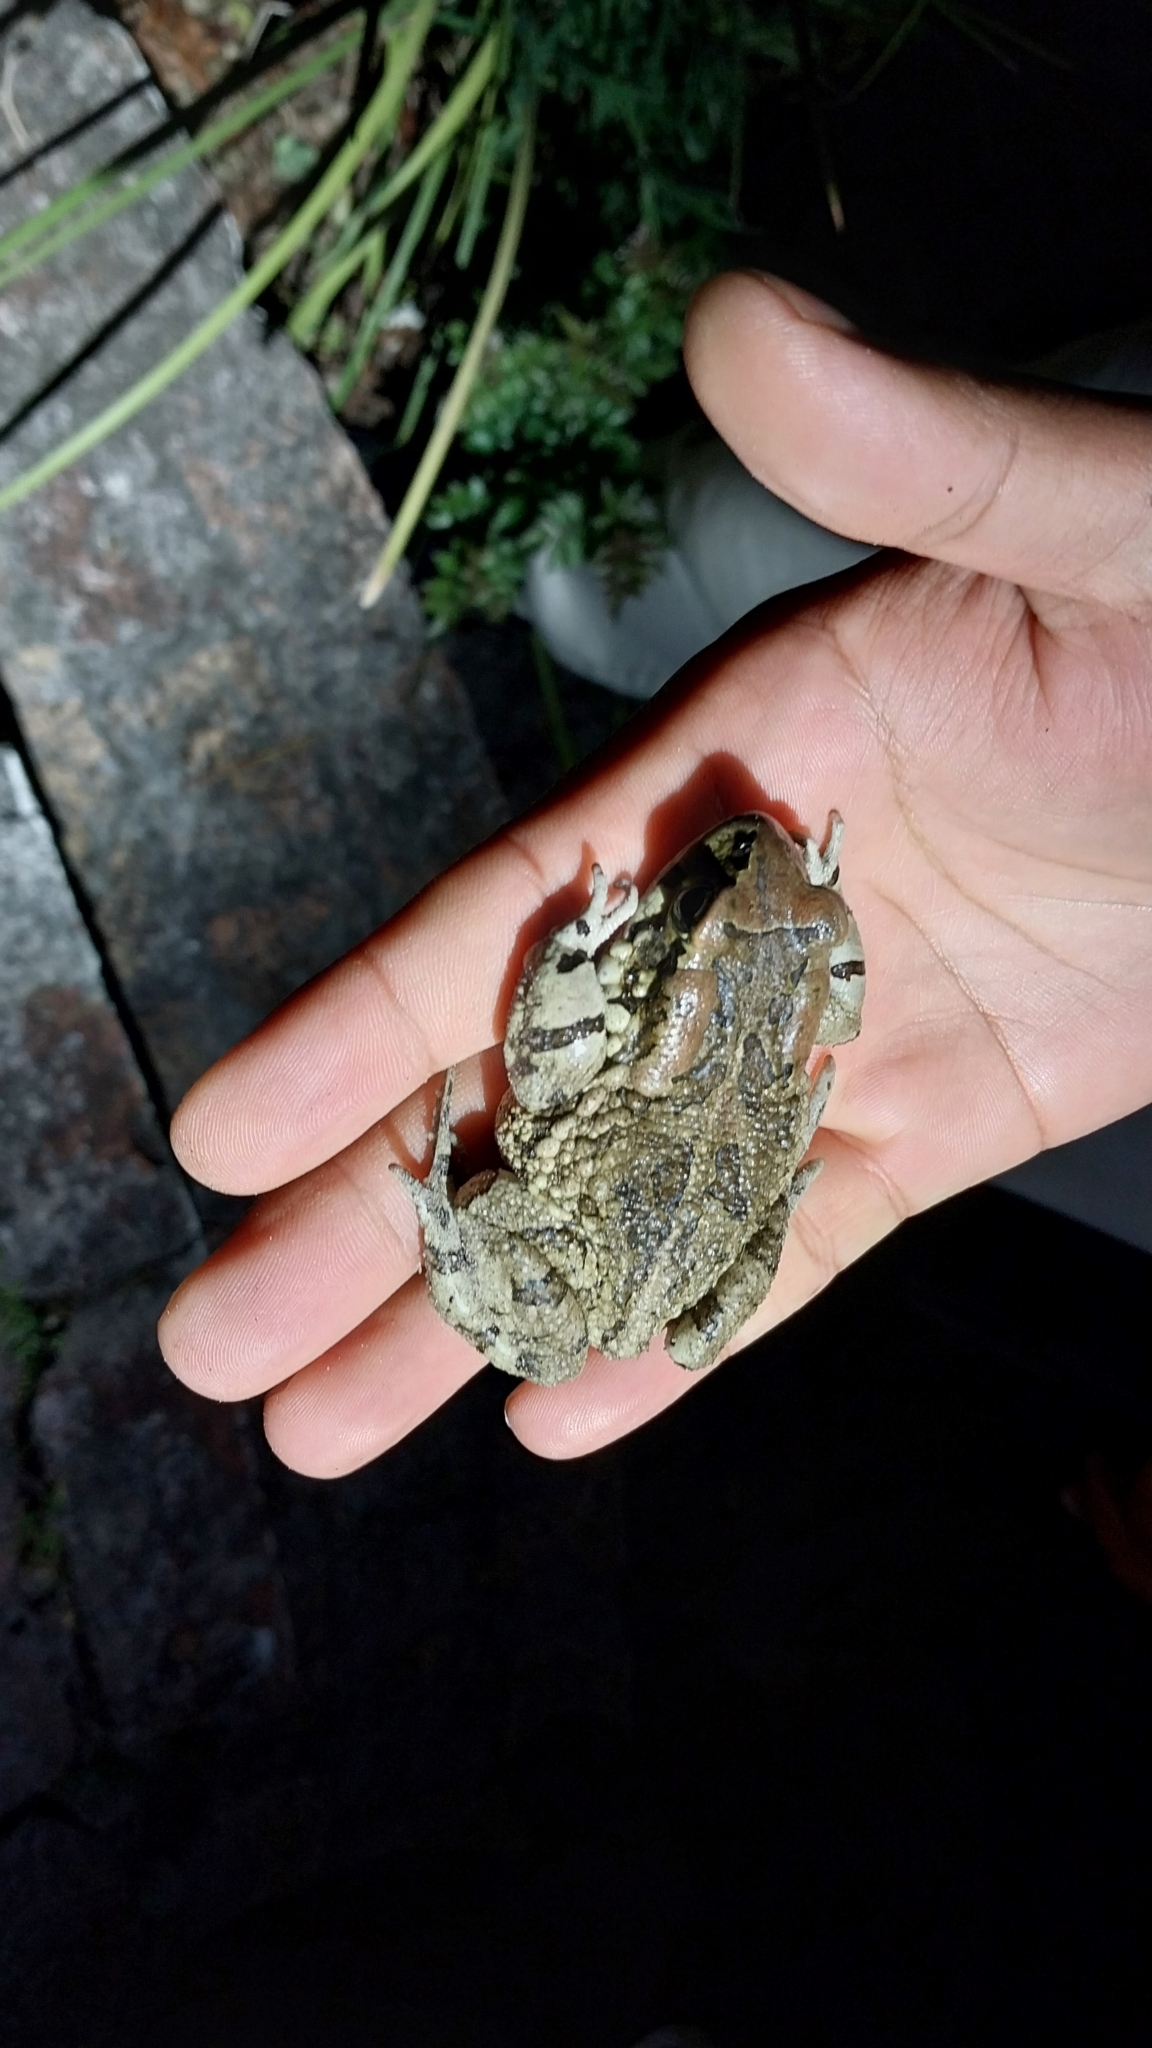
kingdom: Animalia
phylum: Chordata
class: Amphibia
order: Anura
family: Bufonidae
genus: Sclerophrys
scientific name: Sclerophrys capensis
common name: Ranger’s toad
